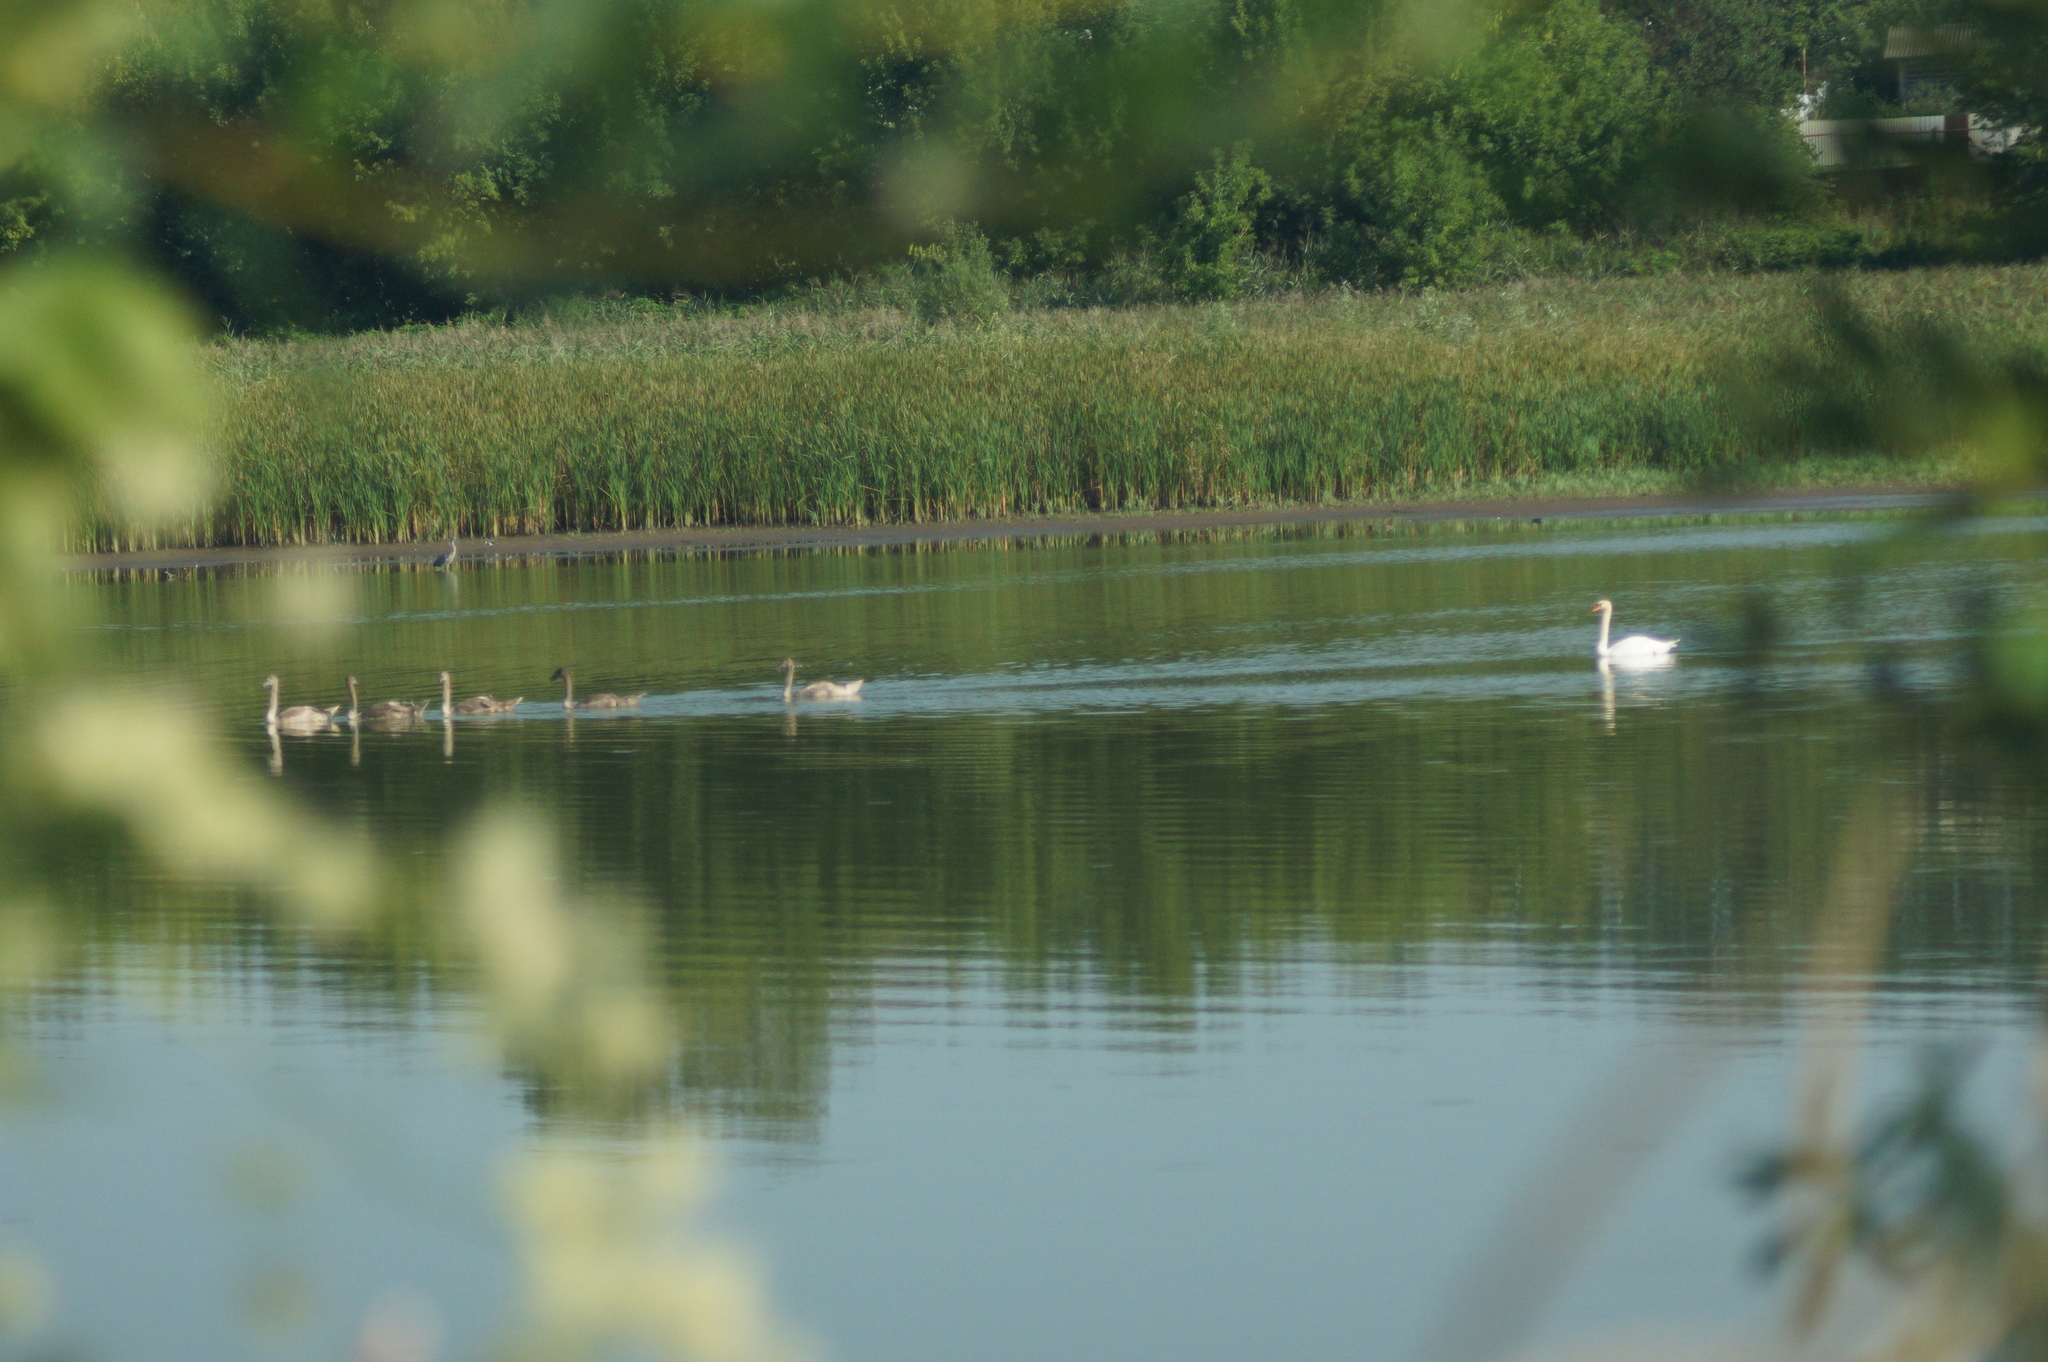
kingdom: Animalia
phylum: Chordata
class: Aves
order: Anseriformes
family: Anatidae
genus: Cygnus
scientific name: Cygnus olor
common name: Mute swan
